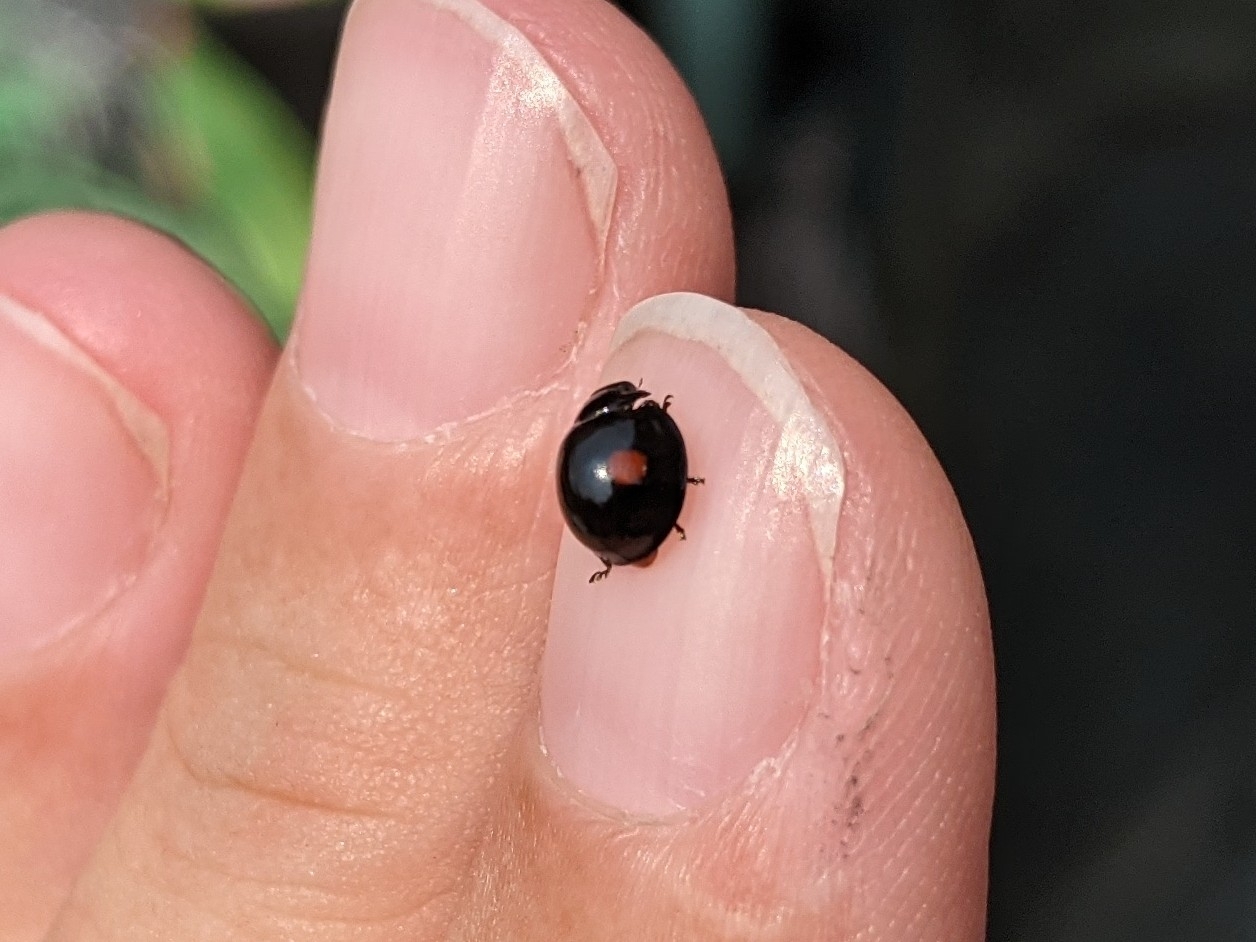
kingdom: Animalia
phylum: Arthropoda
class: Insecta
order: Coleoptera
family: Coccinellidae
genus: Chilocorus
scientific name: Chilocorus stigma
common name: Twicestabbed lady beetle
